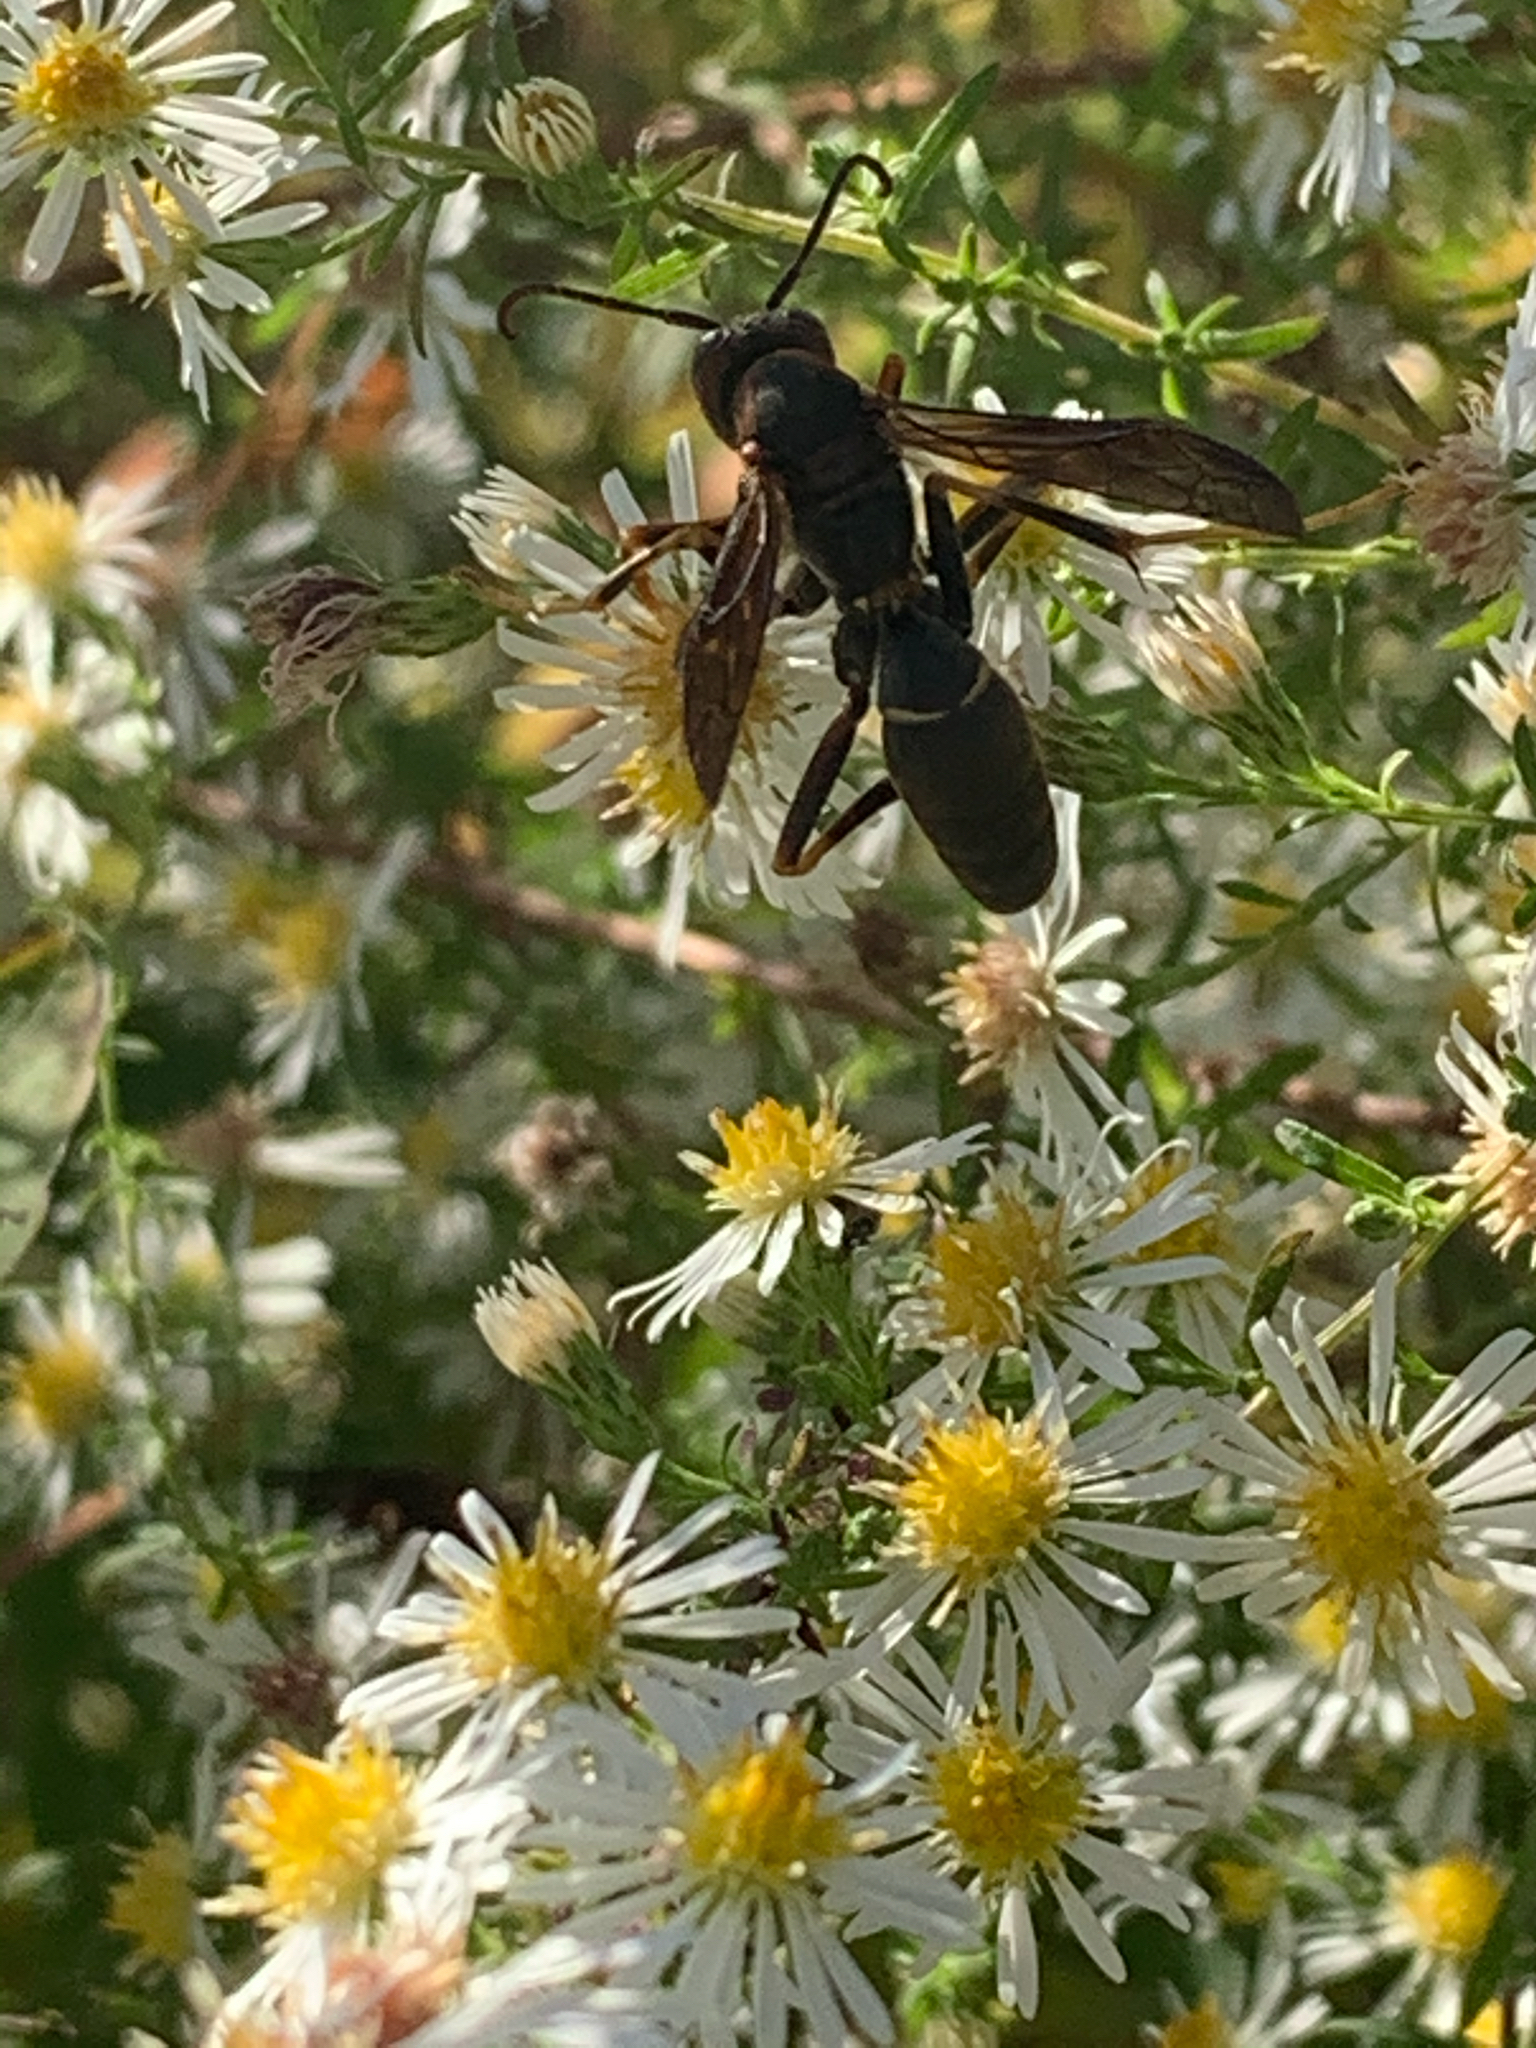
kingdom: Animalia
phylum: Arthropoda
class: Insecta
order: Hymenoptera
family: Eumenidae
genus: Polistes
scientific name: Polistes fuscatus
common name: Dark paper wasp
